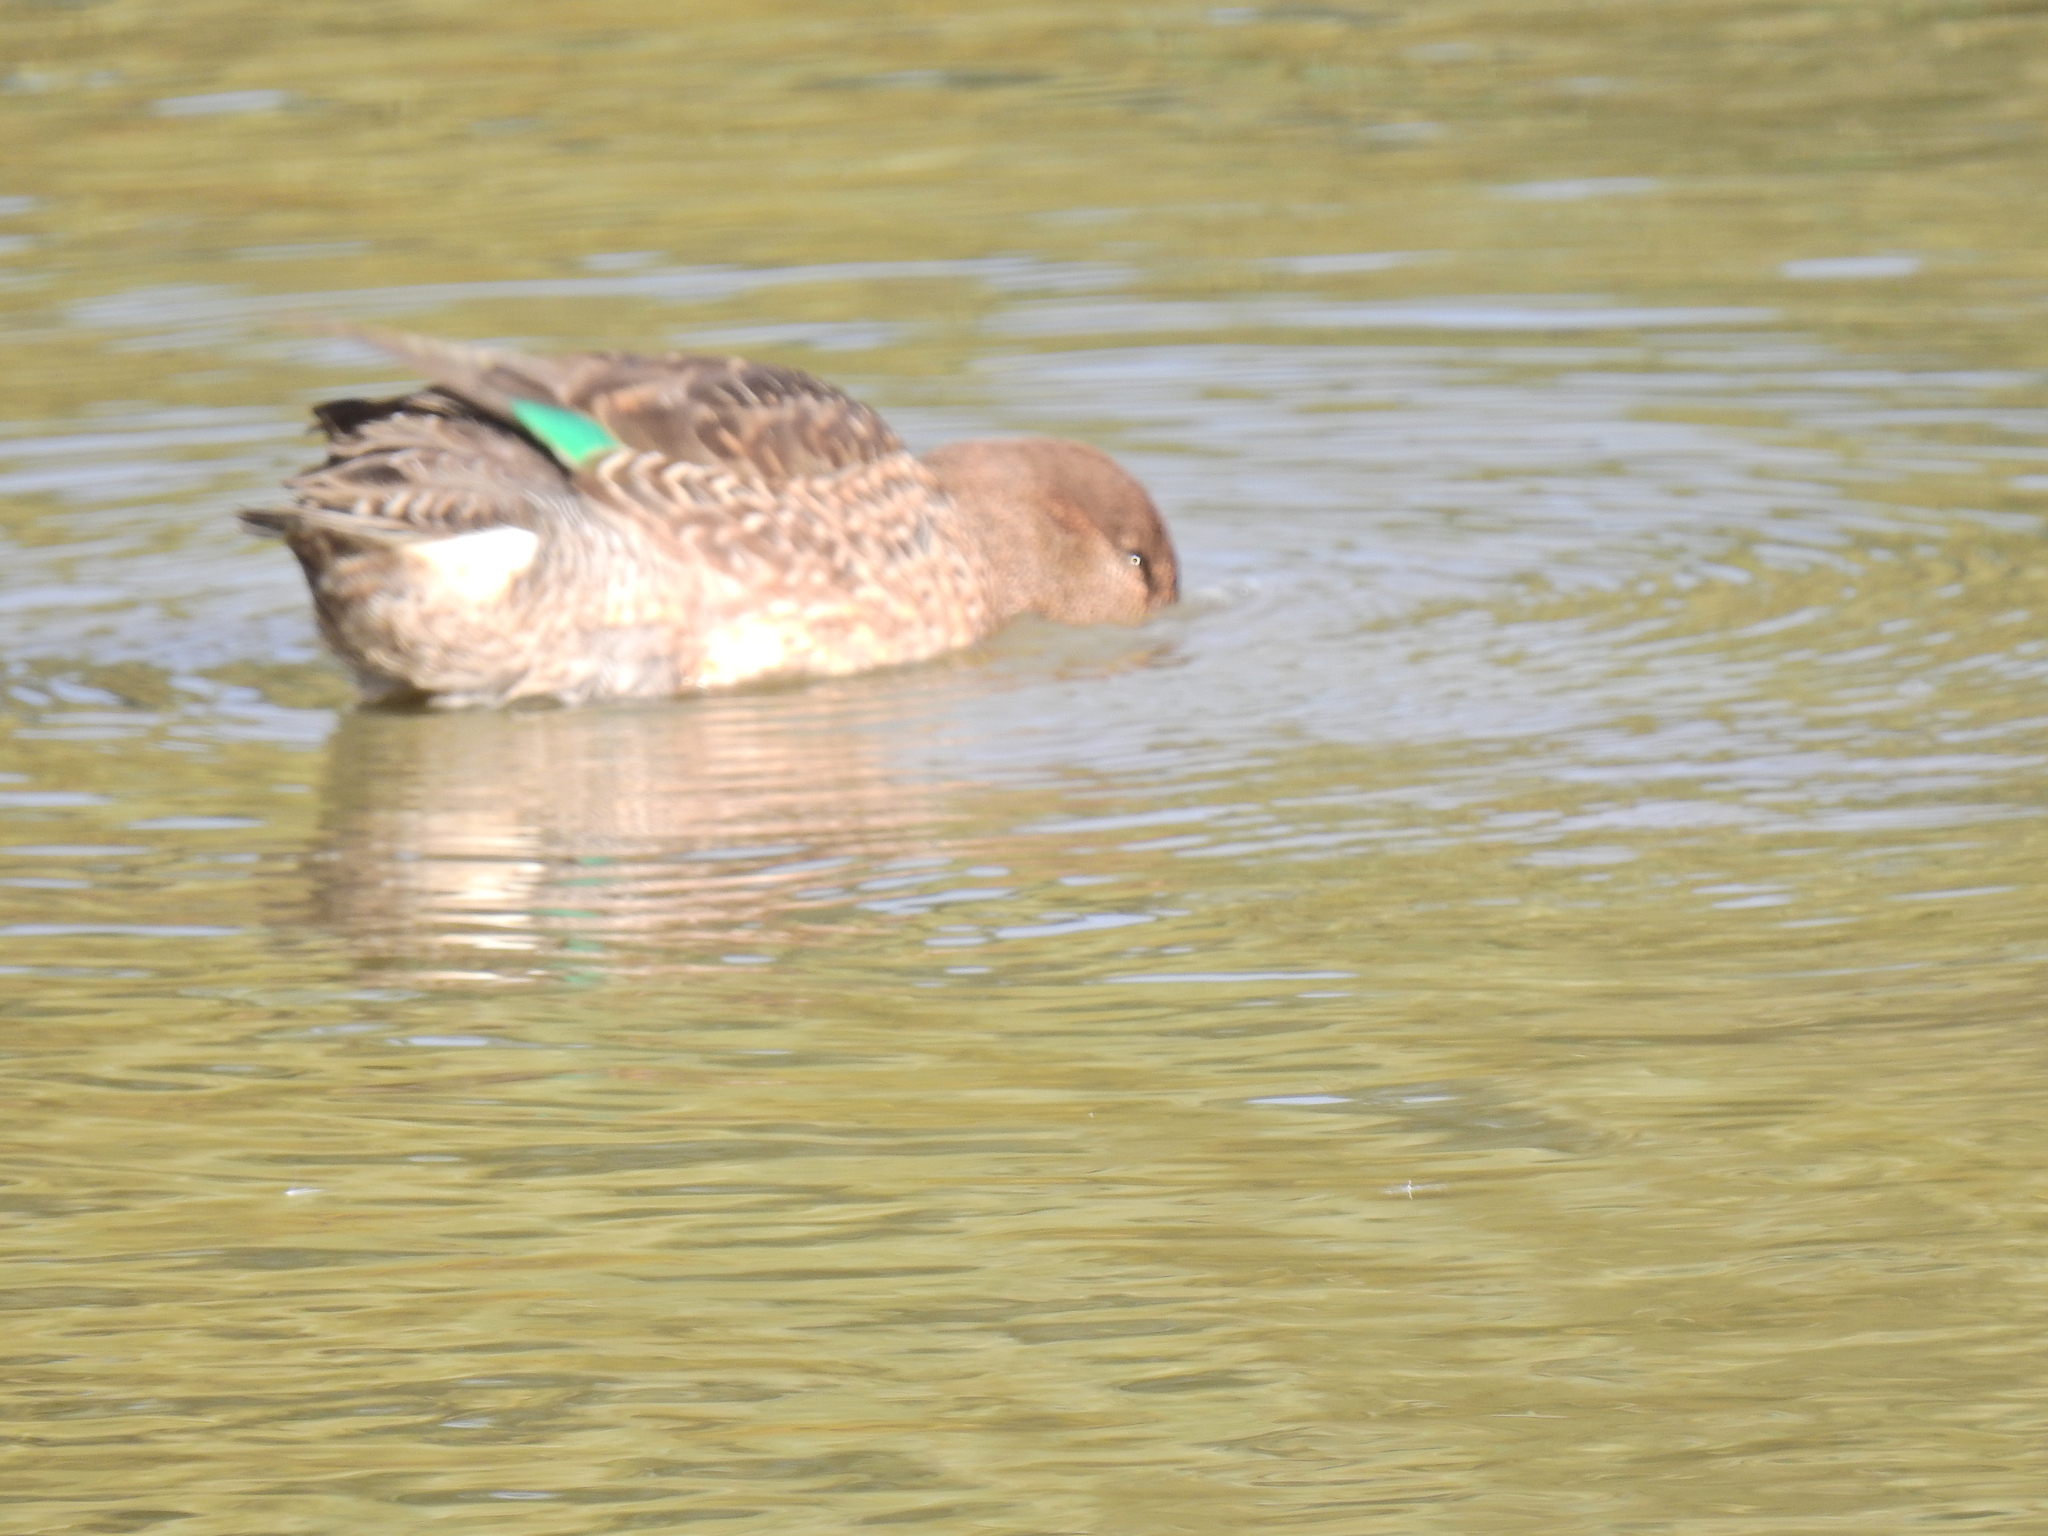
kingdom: Animalia
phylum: Chordata
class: Aves
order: Anseriformes
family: Anatidae
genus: Anas
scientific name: Anas crecca
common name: Eurasian teal
